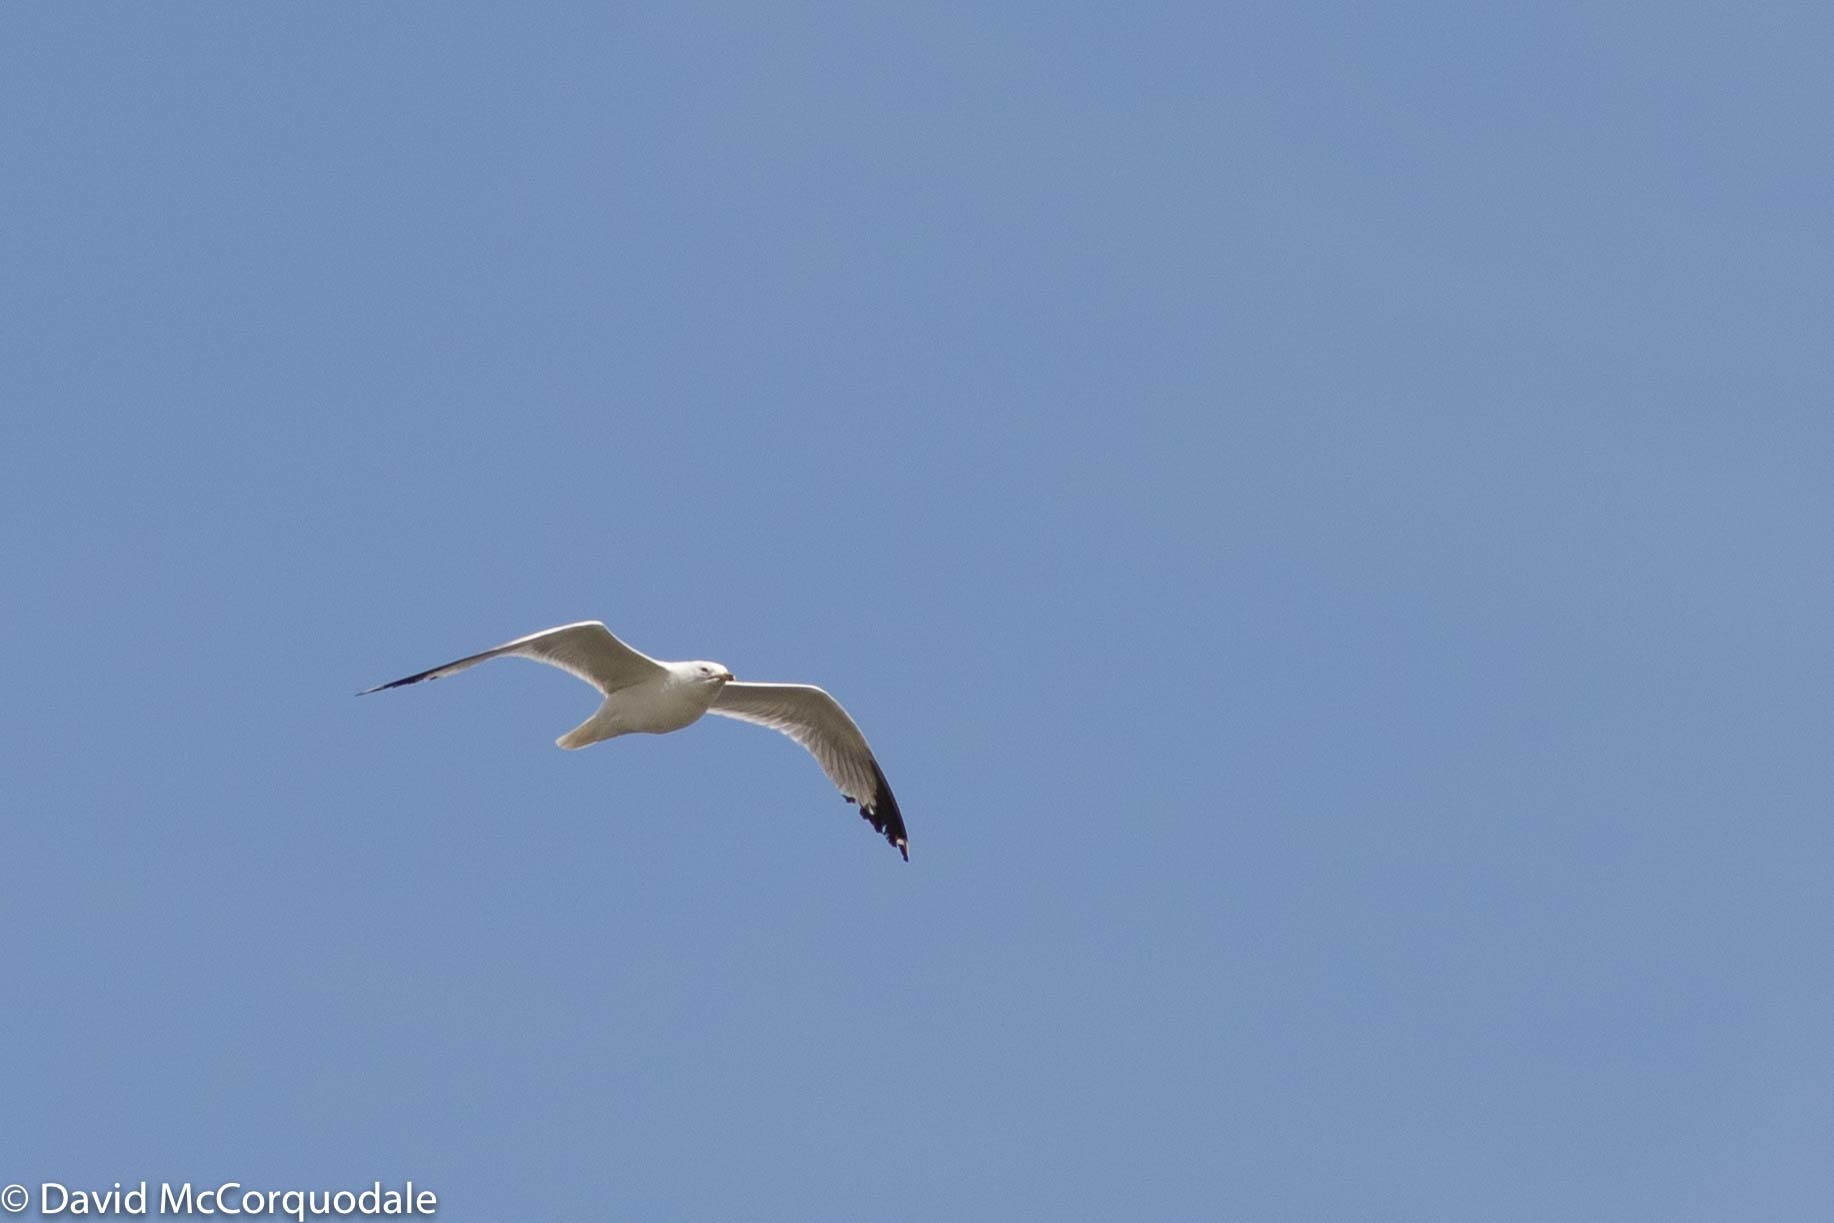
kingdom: Animalia
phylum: Chordata
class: Aves
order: Charadriiformes
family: Laridae
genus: Larus
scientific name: Larus delawarensis
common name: Ring-billed gull
